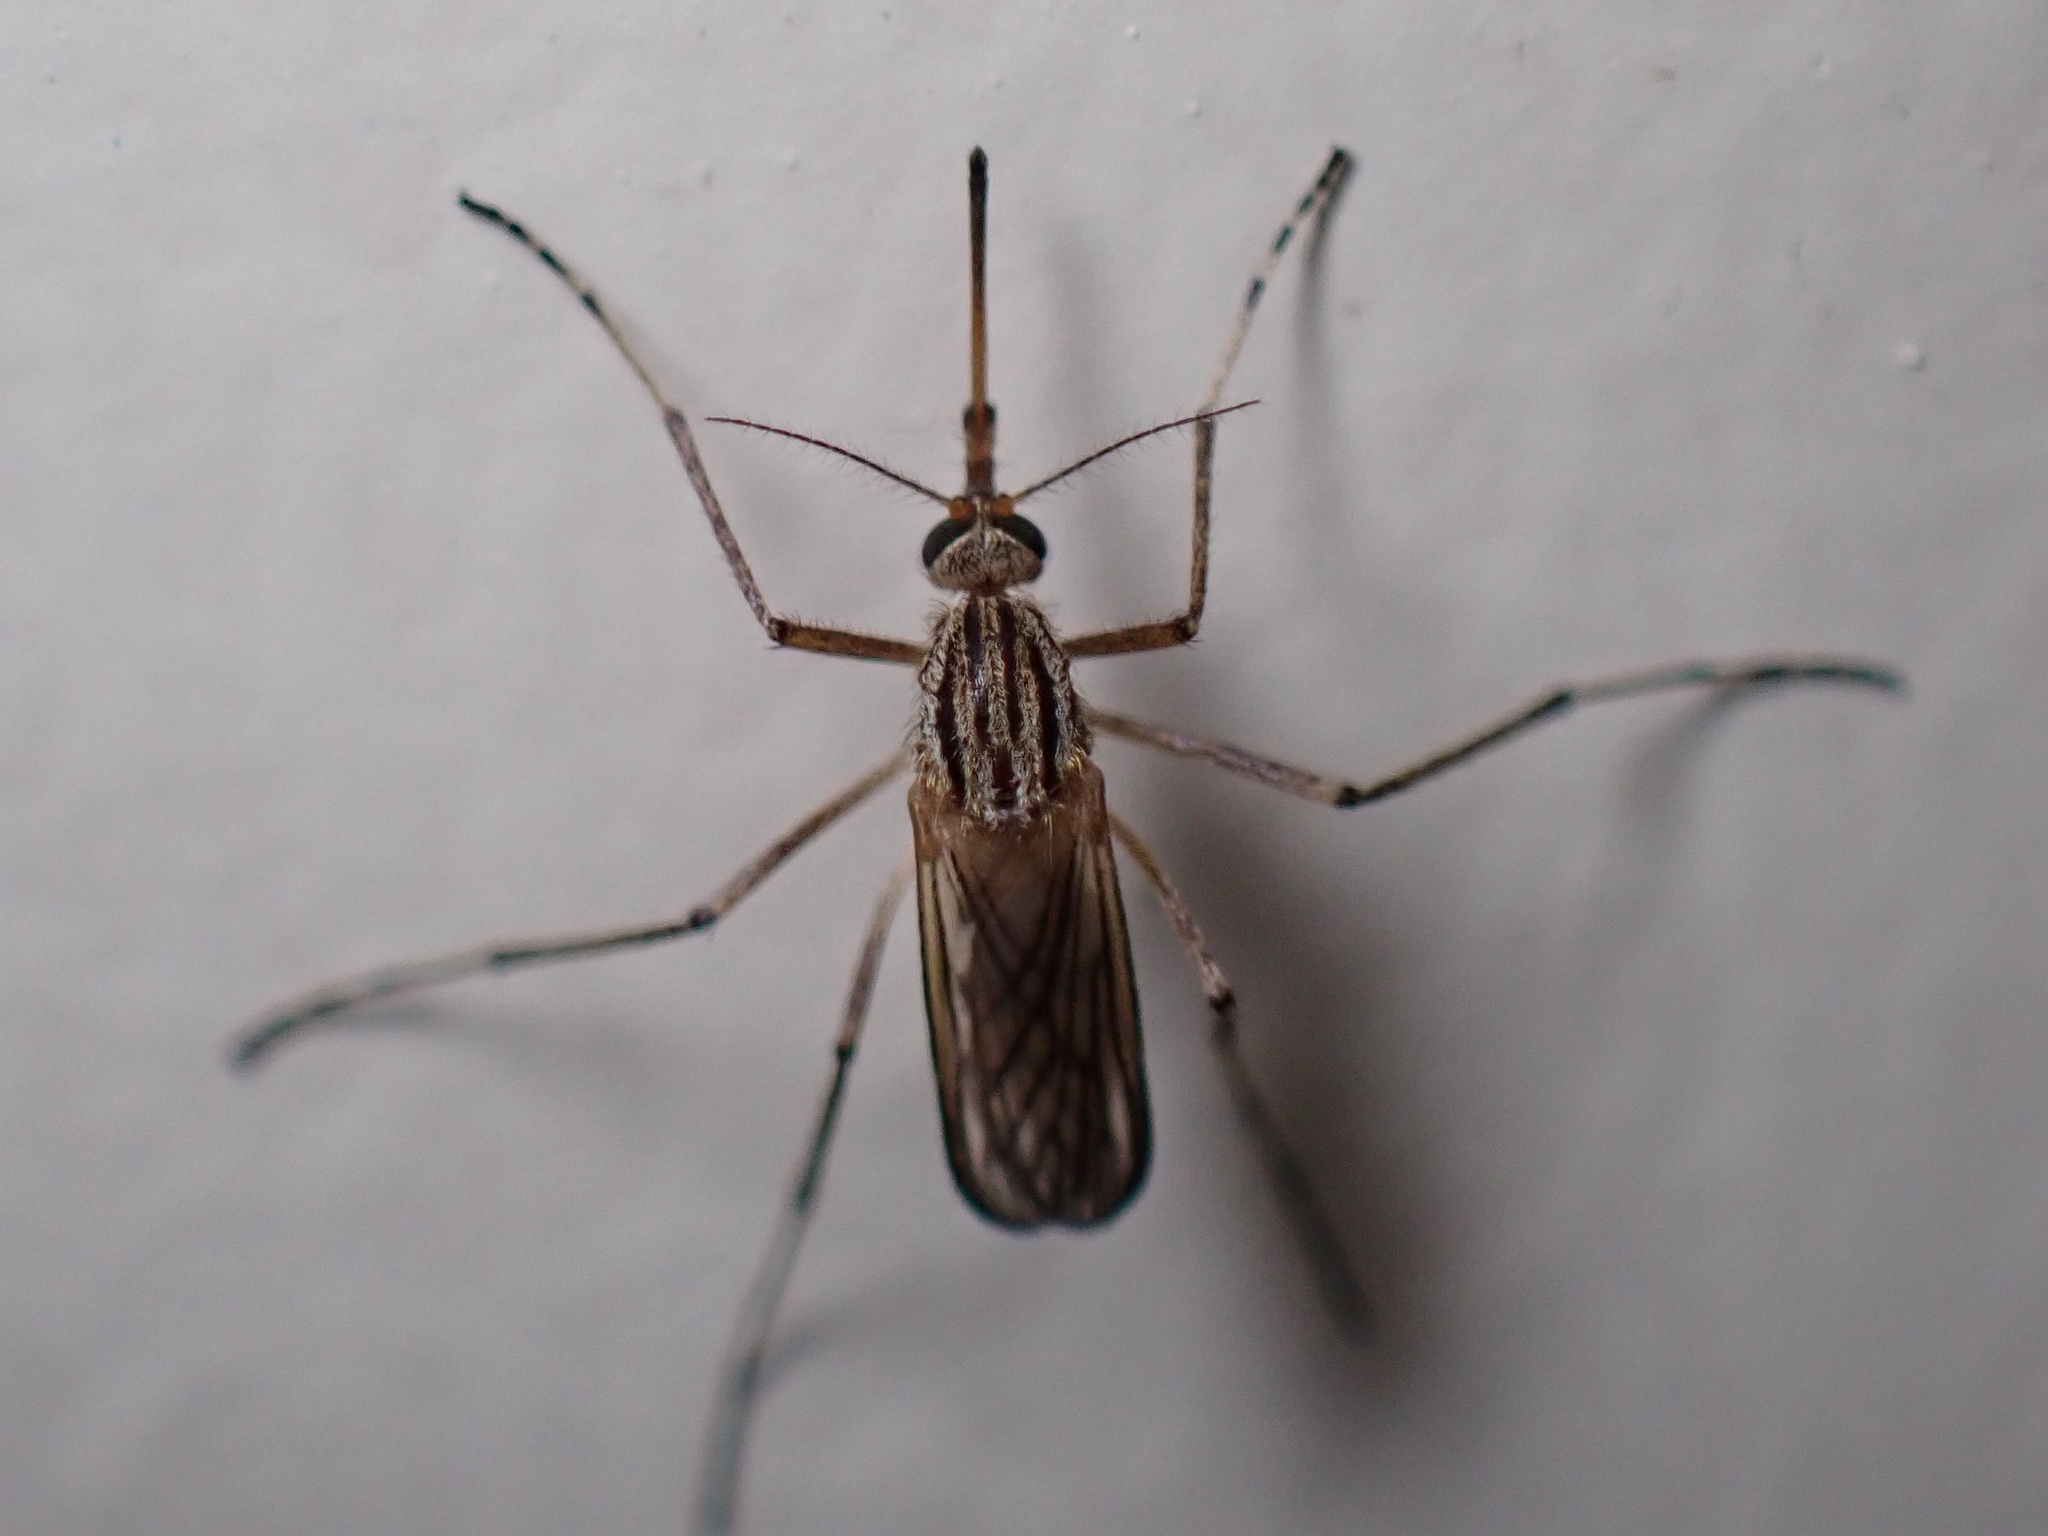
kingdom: Animalia
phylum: Arthropoda
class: Insecta
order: Diptera
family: Culicidae
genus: Aedes
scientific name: Aedes vittiger
